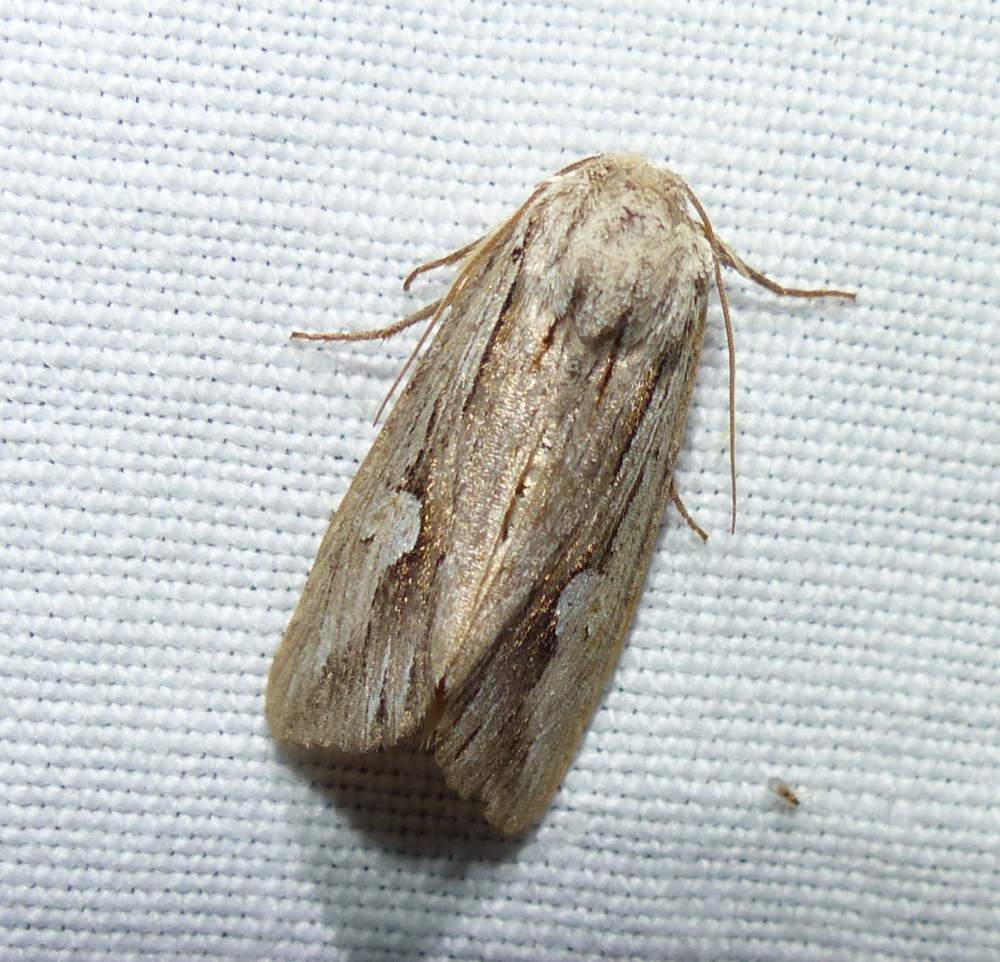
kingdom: Animalia
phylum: Arthropoda
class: Insecta
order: Lepidoptera
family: Noctuidae
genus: Nedra
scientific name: Nedra ramosula
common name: Gray half-spot
